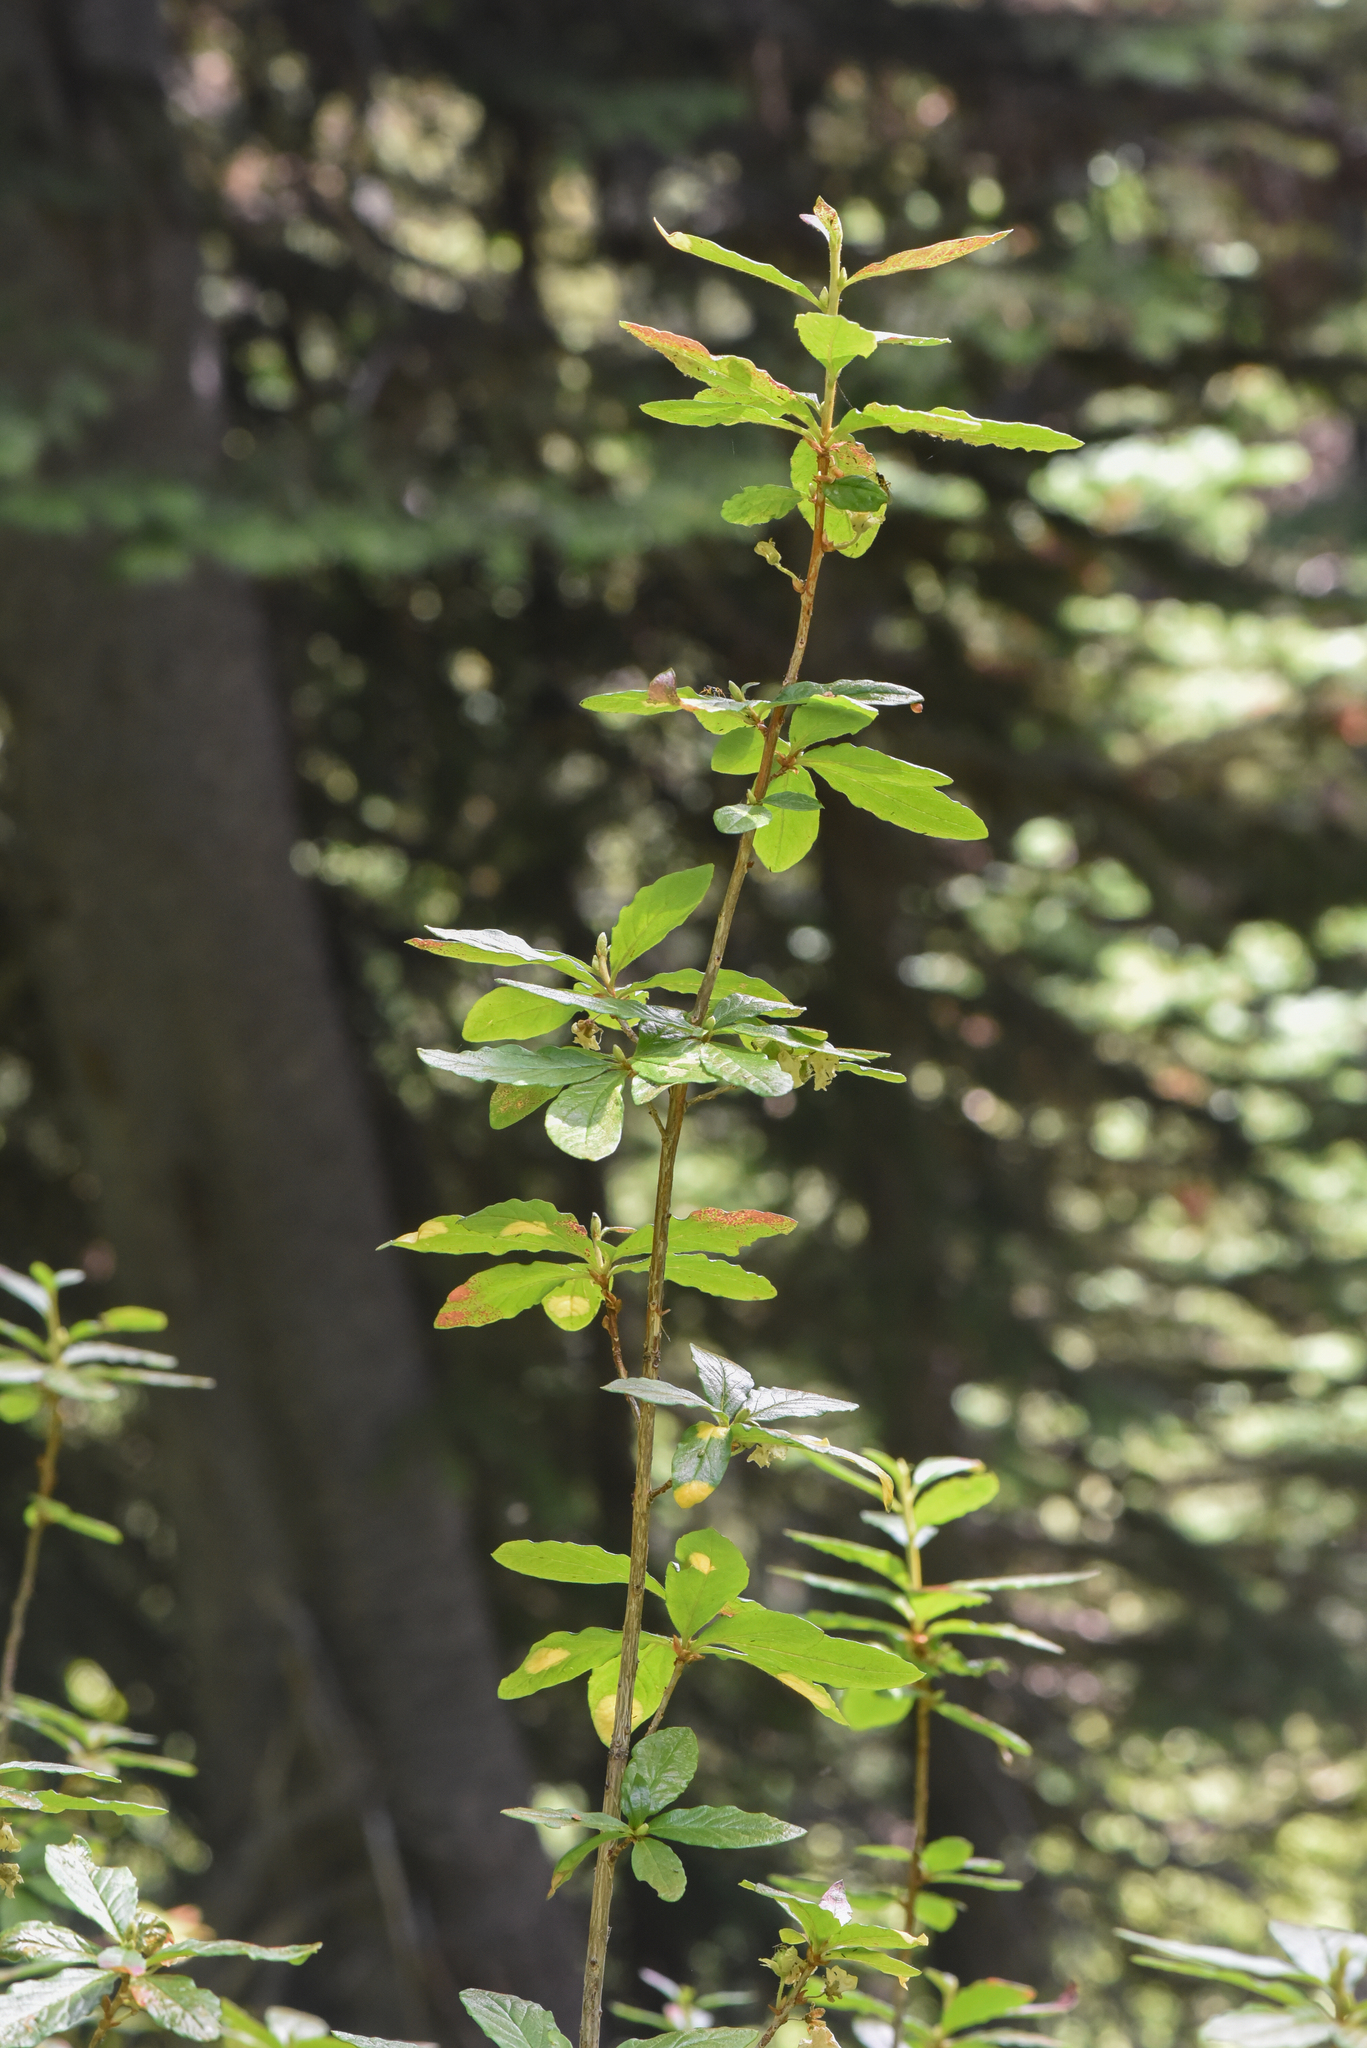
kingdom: Plantae
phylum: Tracheophyta
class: Magnoliopsida
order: Ericales
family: Ericaceae
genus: Rhododendron
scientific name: Rhododendron albiflorum
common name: White rhododendron
